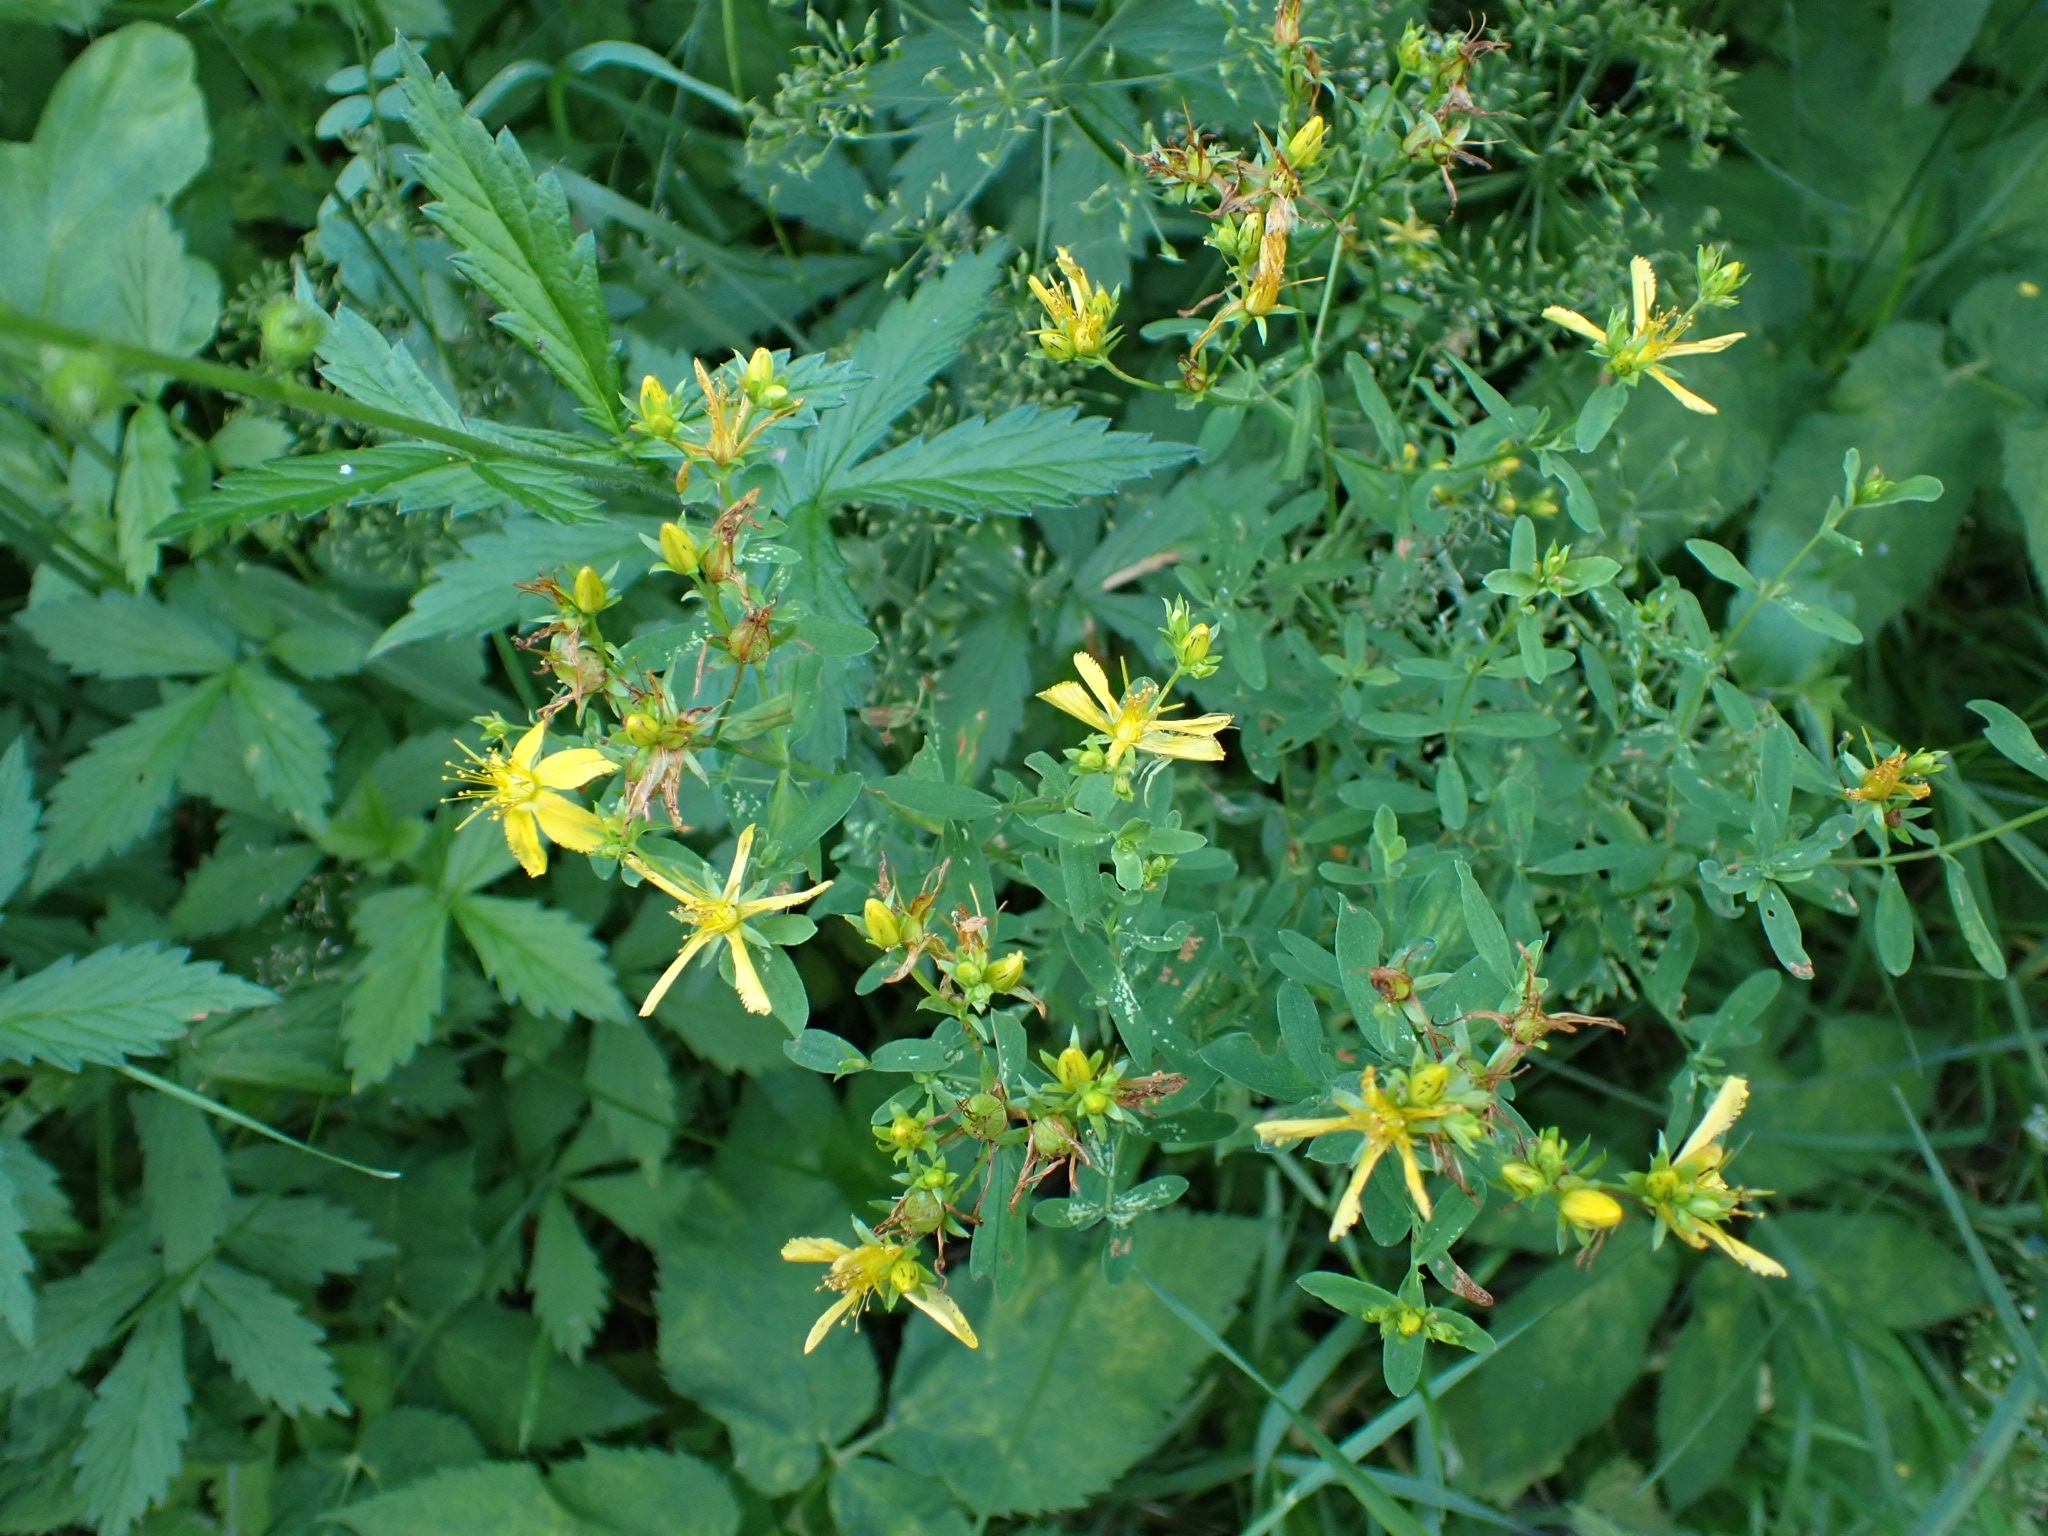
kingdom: Plantae
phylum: Tracheophyta
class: Magnoliopsida
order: Malpighiales
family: Hypericaceae
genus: Hypericum
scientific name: Hypericum perforatum
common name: Common st. johnswort
